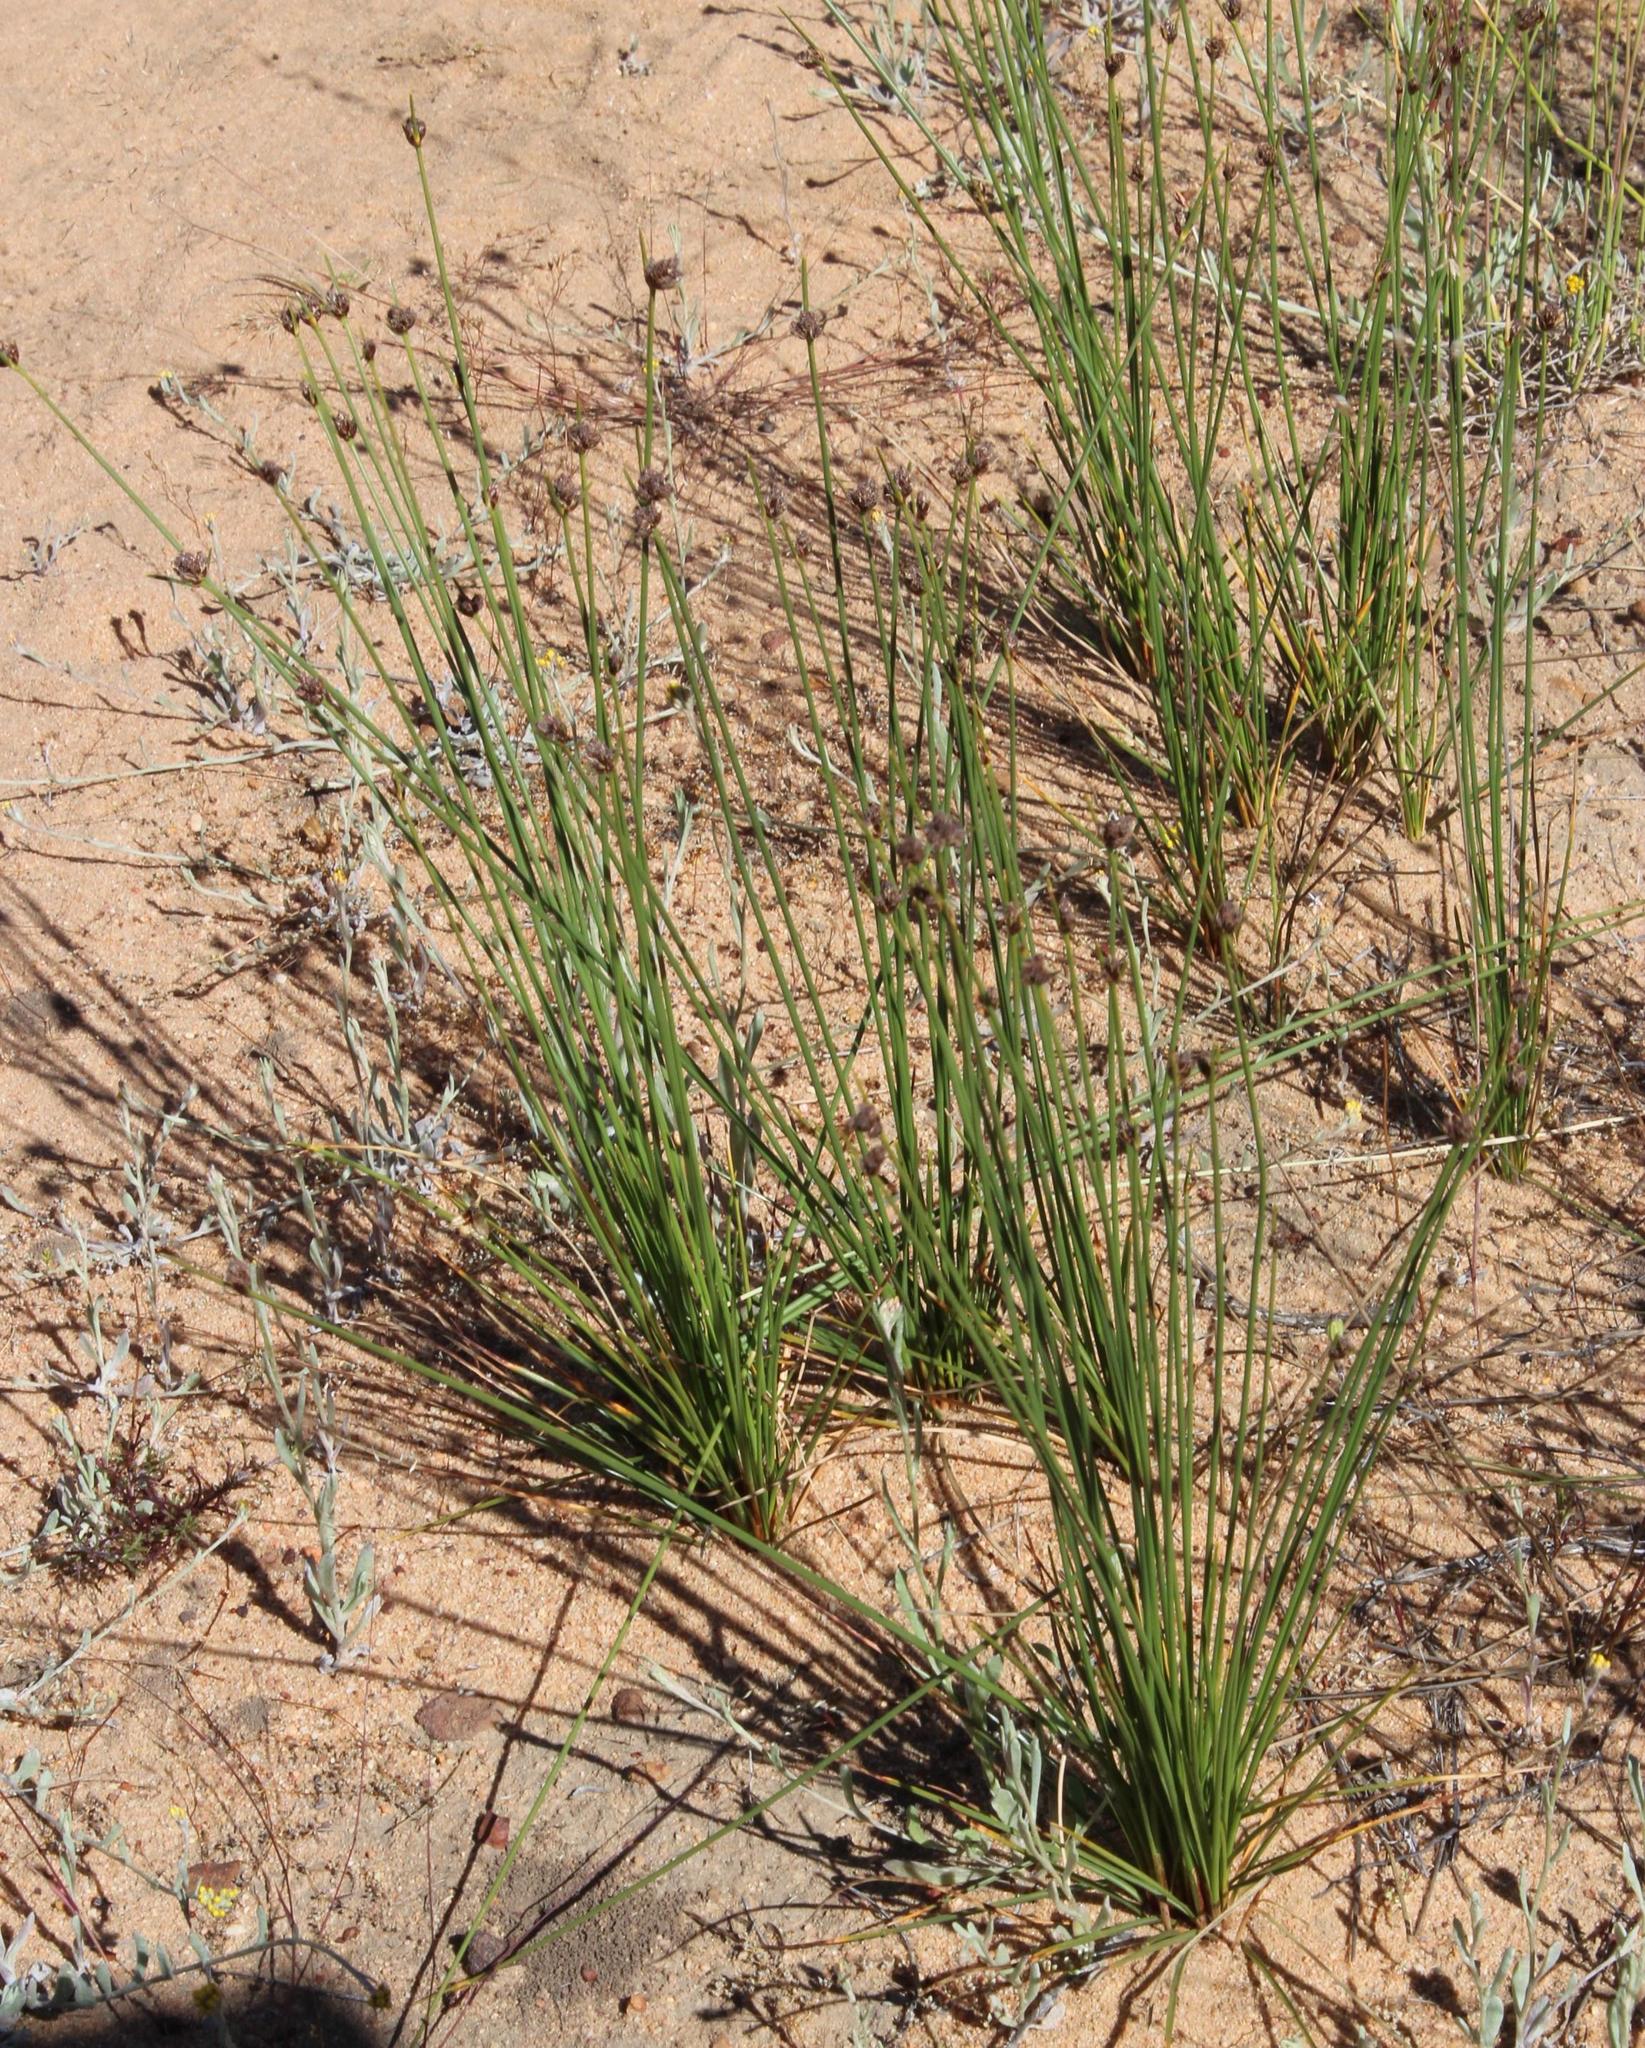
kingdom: Plantae
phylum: Tracheophyta
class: Liliopsida
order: Poales
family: Cyperaceae
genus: Ficinia
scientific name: Ficinia indica
